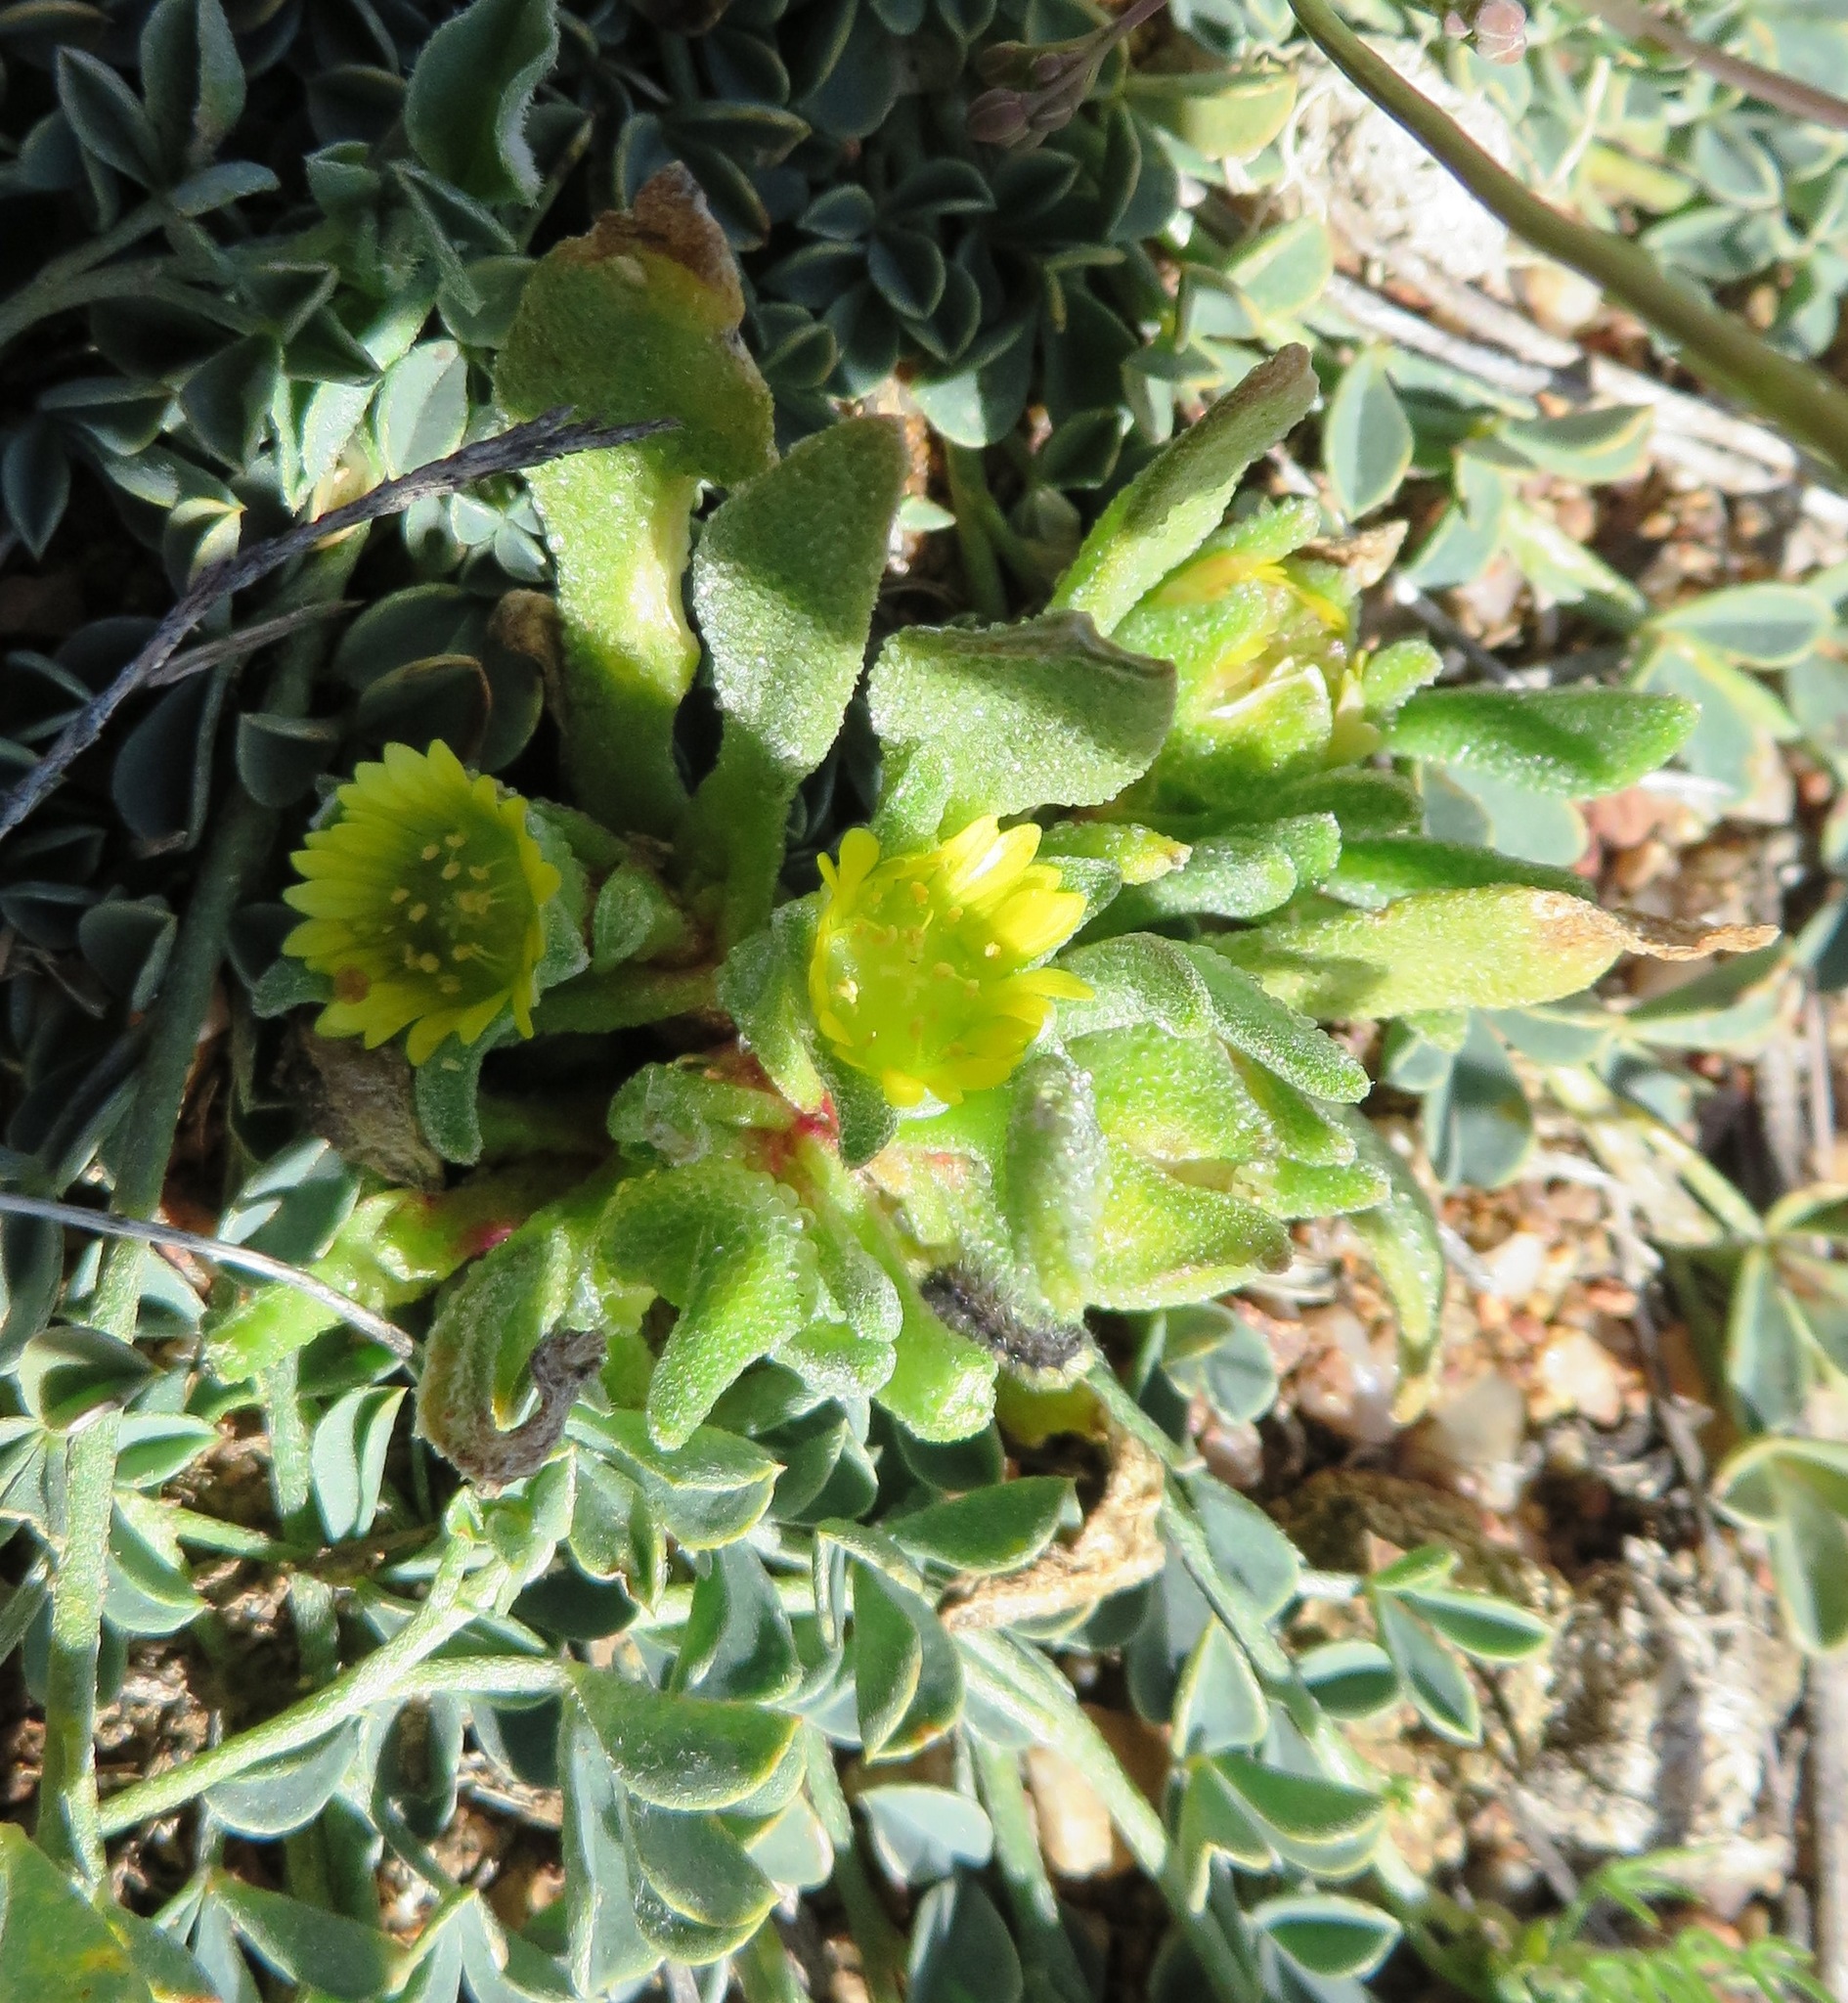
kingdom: Plantae
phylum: Tracheophyta
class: Magnoliopsida
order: Caryophyllales
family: Aizoaceae
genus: Cleretum
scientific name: Cleretum bruynsii
